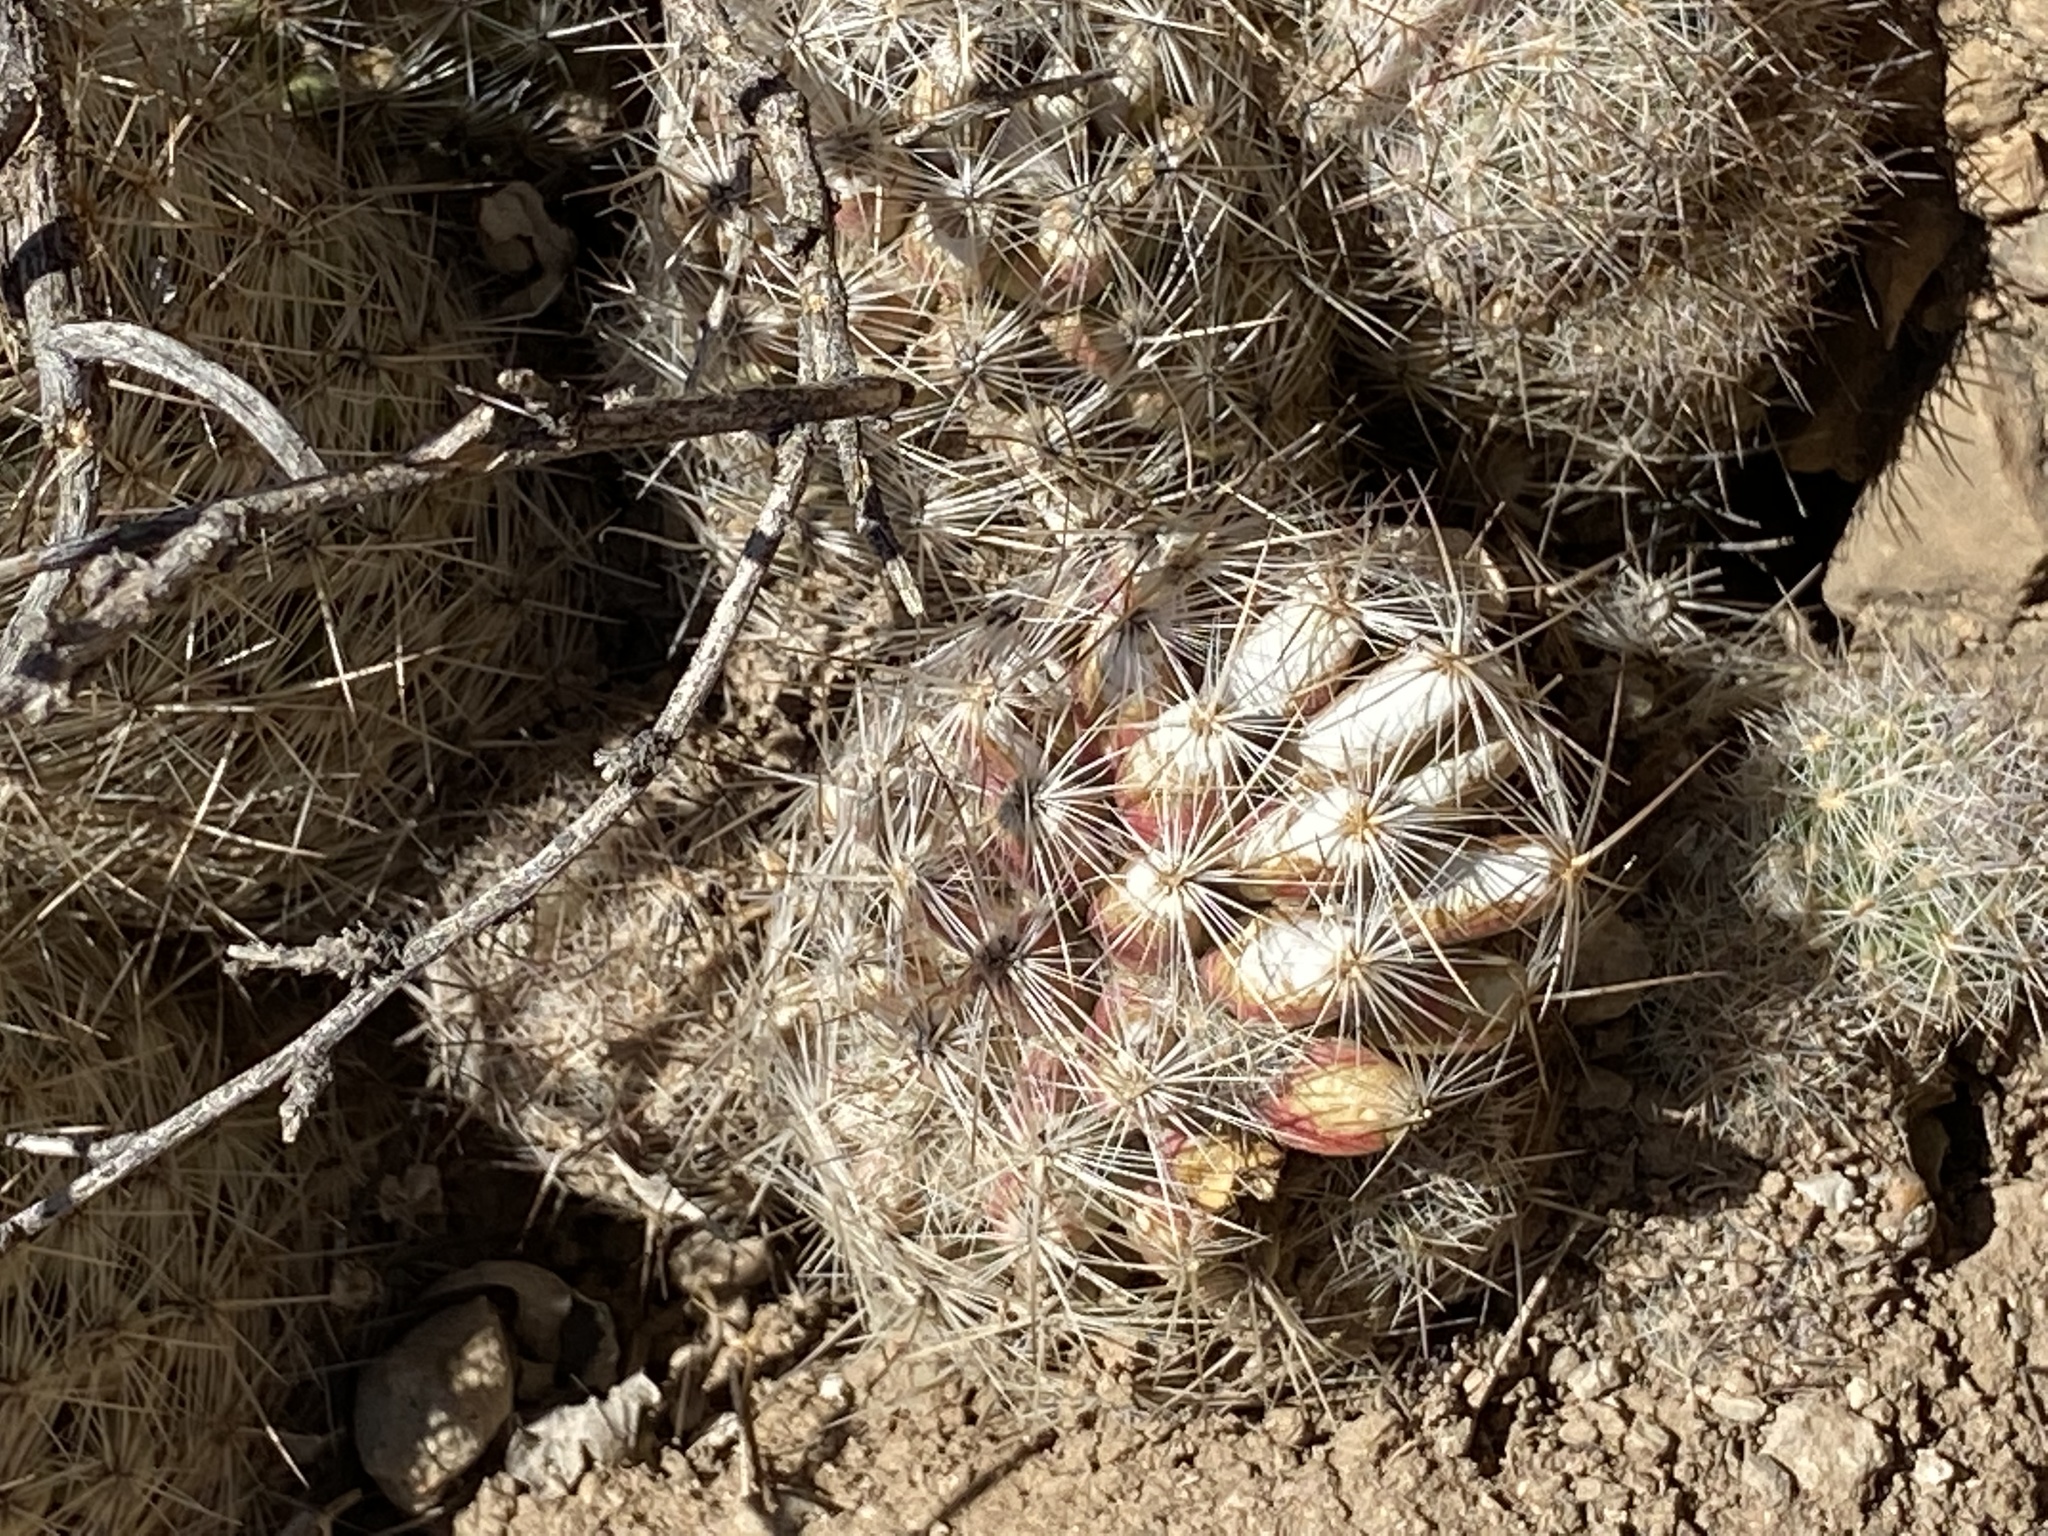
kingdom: Plantae
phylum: Tracheophyta
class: Magnoliopsida
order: Caryophyllales
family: Cactaceae
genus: Pelecyphora
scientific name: Pelecyphora tuberculosa
